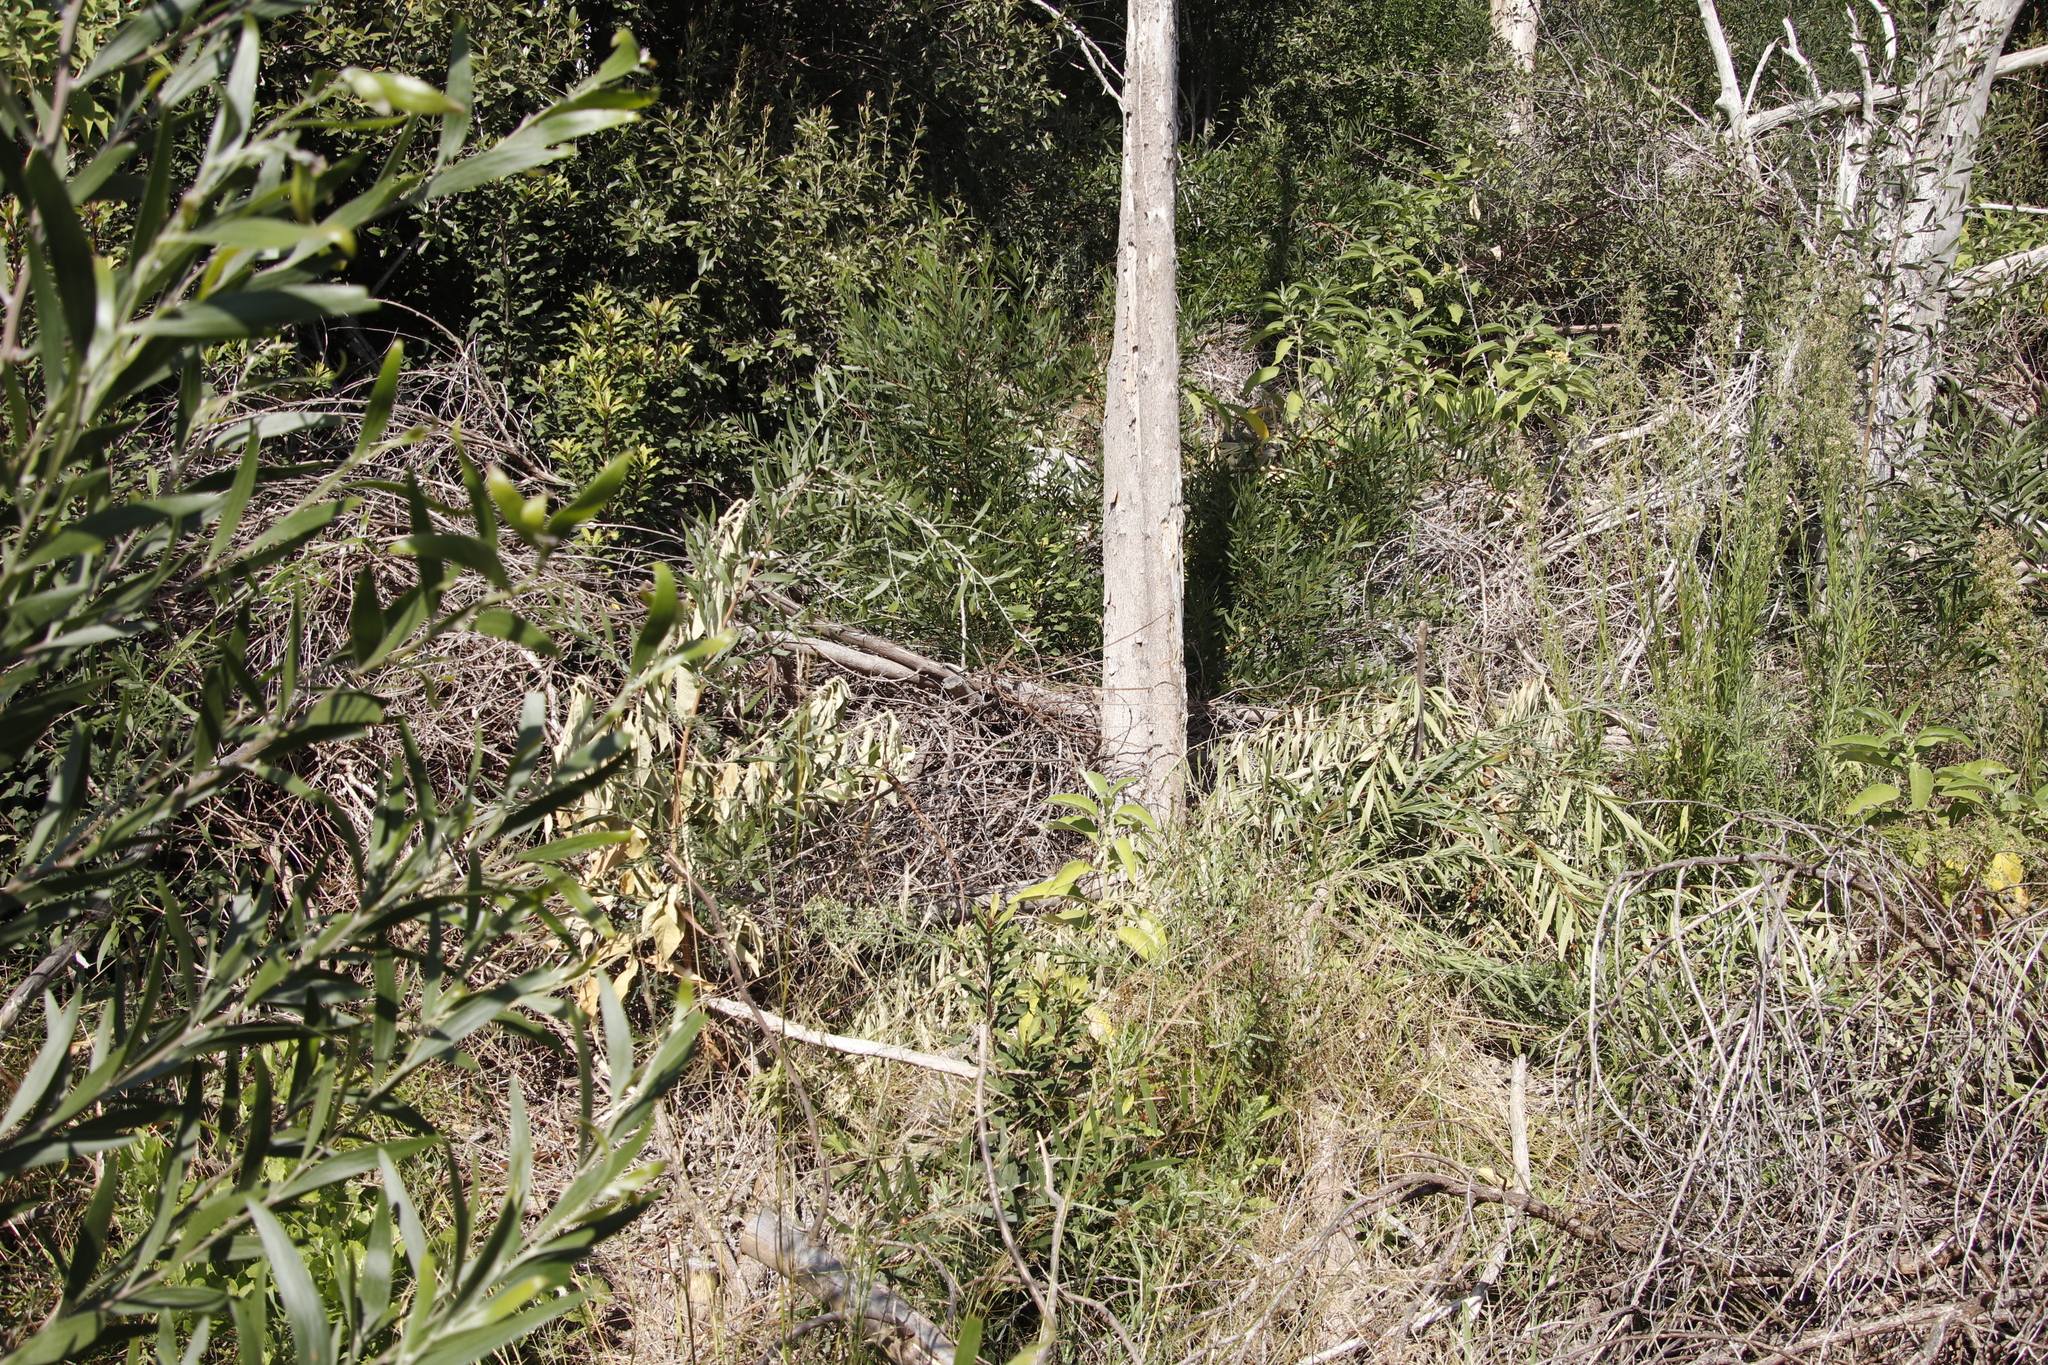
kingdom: Plantae
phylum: Tracheophyta
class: Magnoliopsida
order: Fabales
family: Fabaceae
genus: Acacia
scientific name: Acacia longifolia
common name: Sydney golden wattle
